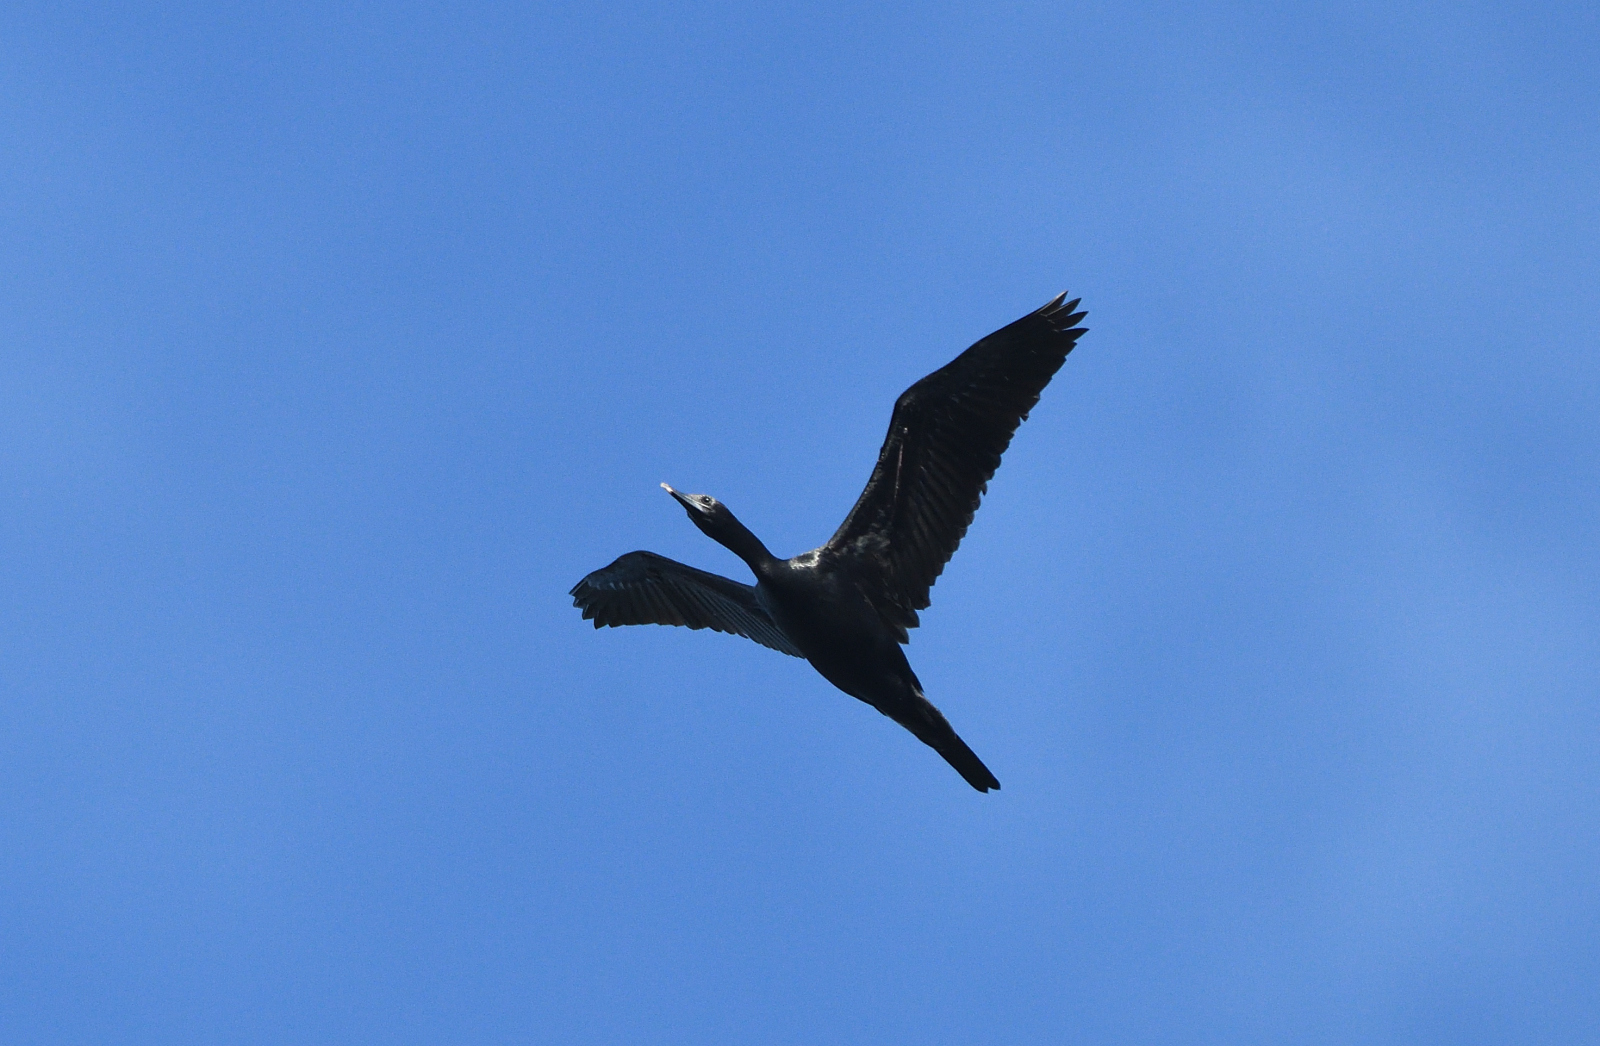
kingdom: Animalia
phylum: Chordata
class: Aves
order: Suliformes
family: Phalacrocoracidae
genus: Microcarbo
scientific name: Microcarbo niger
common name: Little cormorant
